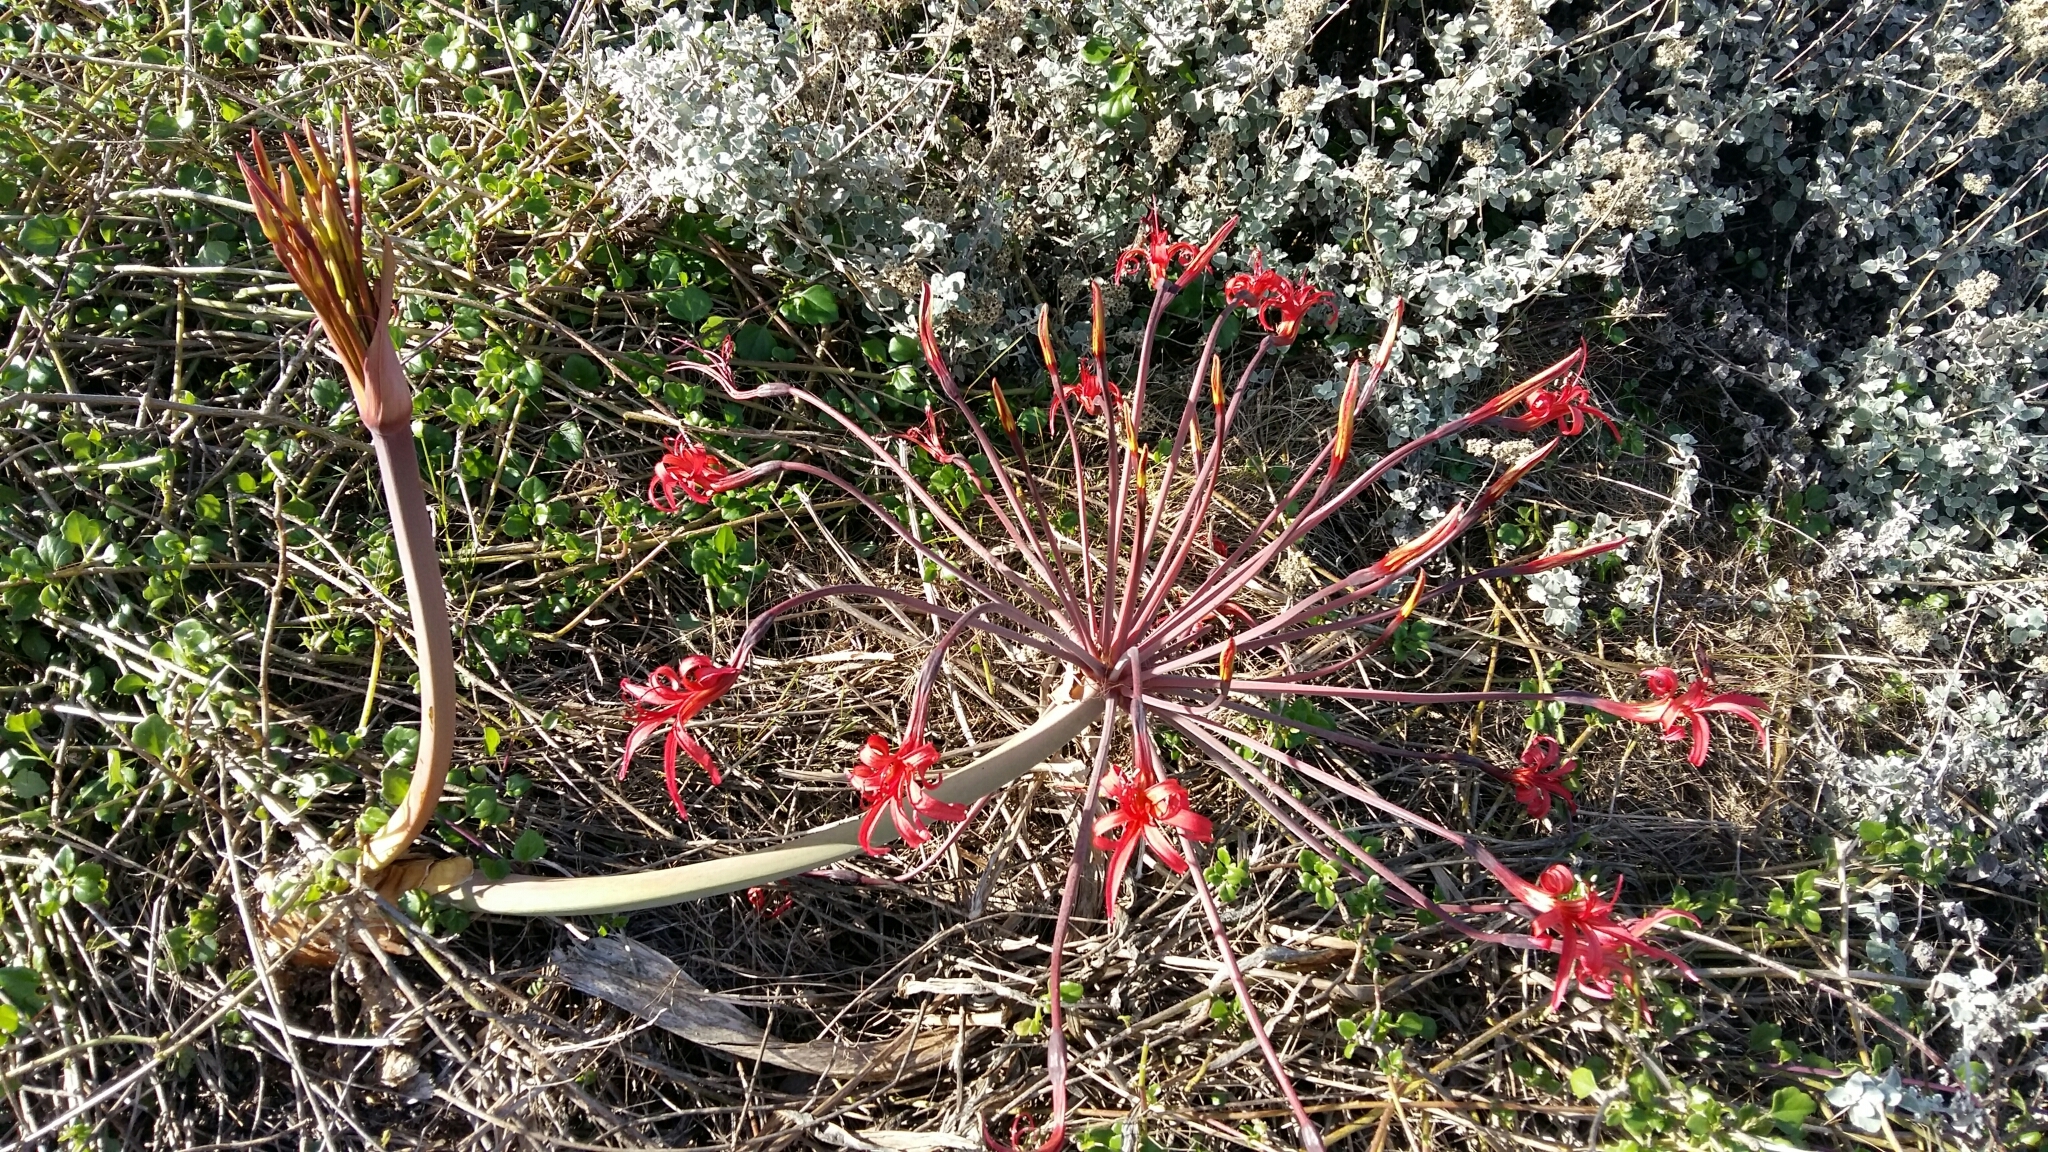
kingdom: Plantae
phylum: Tracheophyta
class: Liliopsida
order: Asparagales
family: Amaryllidaceae
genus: Brunsvigia
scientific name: Brunsvigia orientalis
